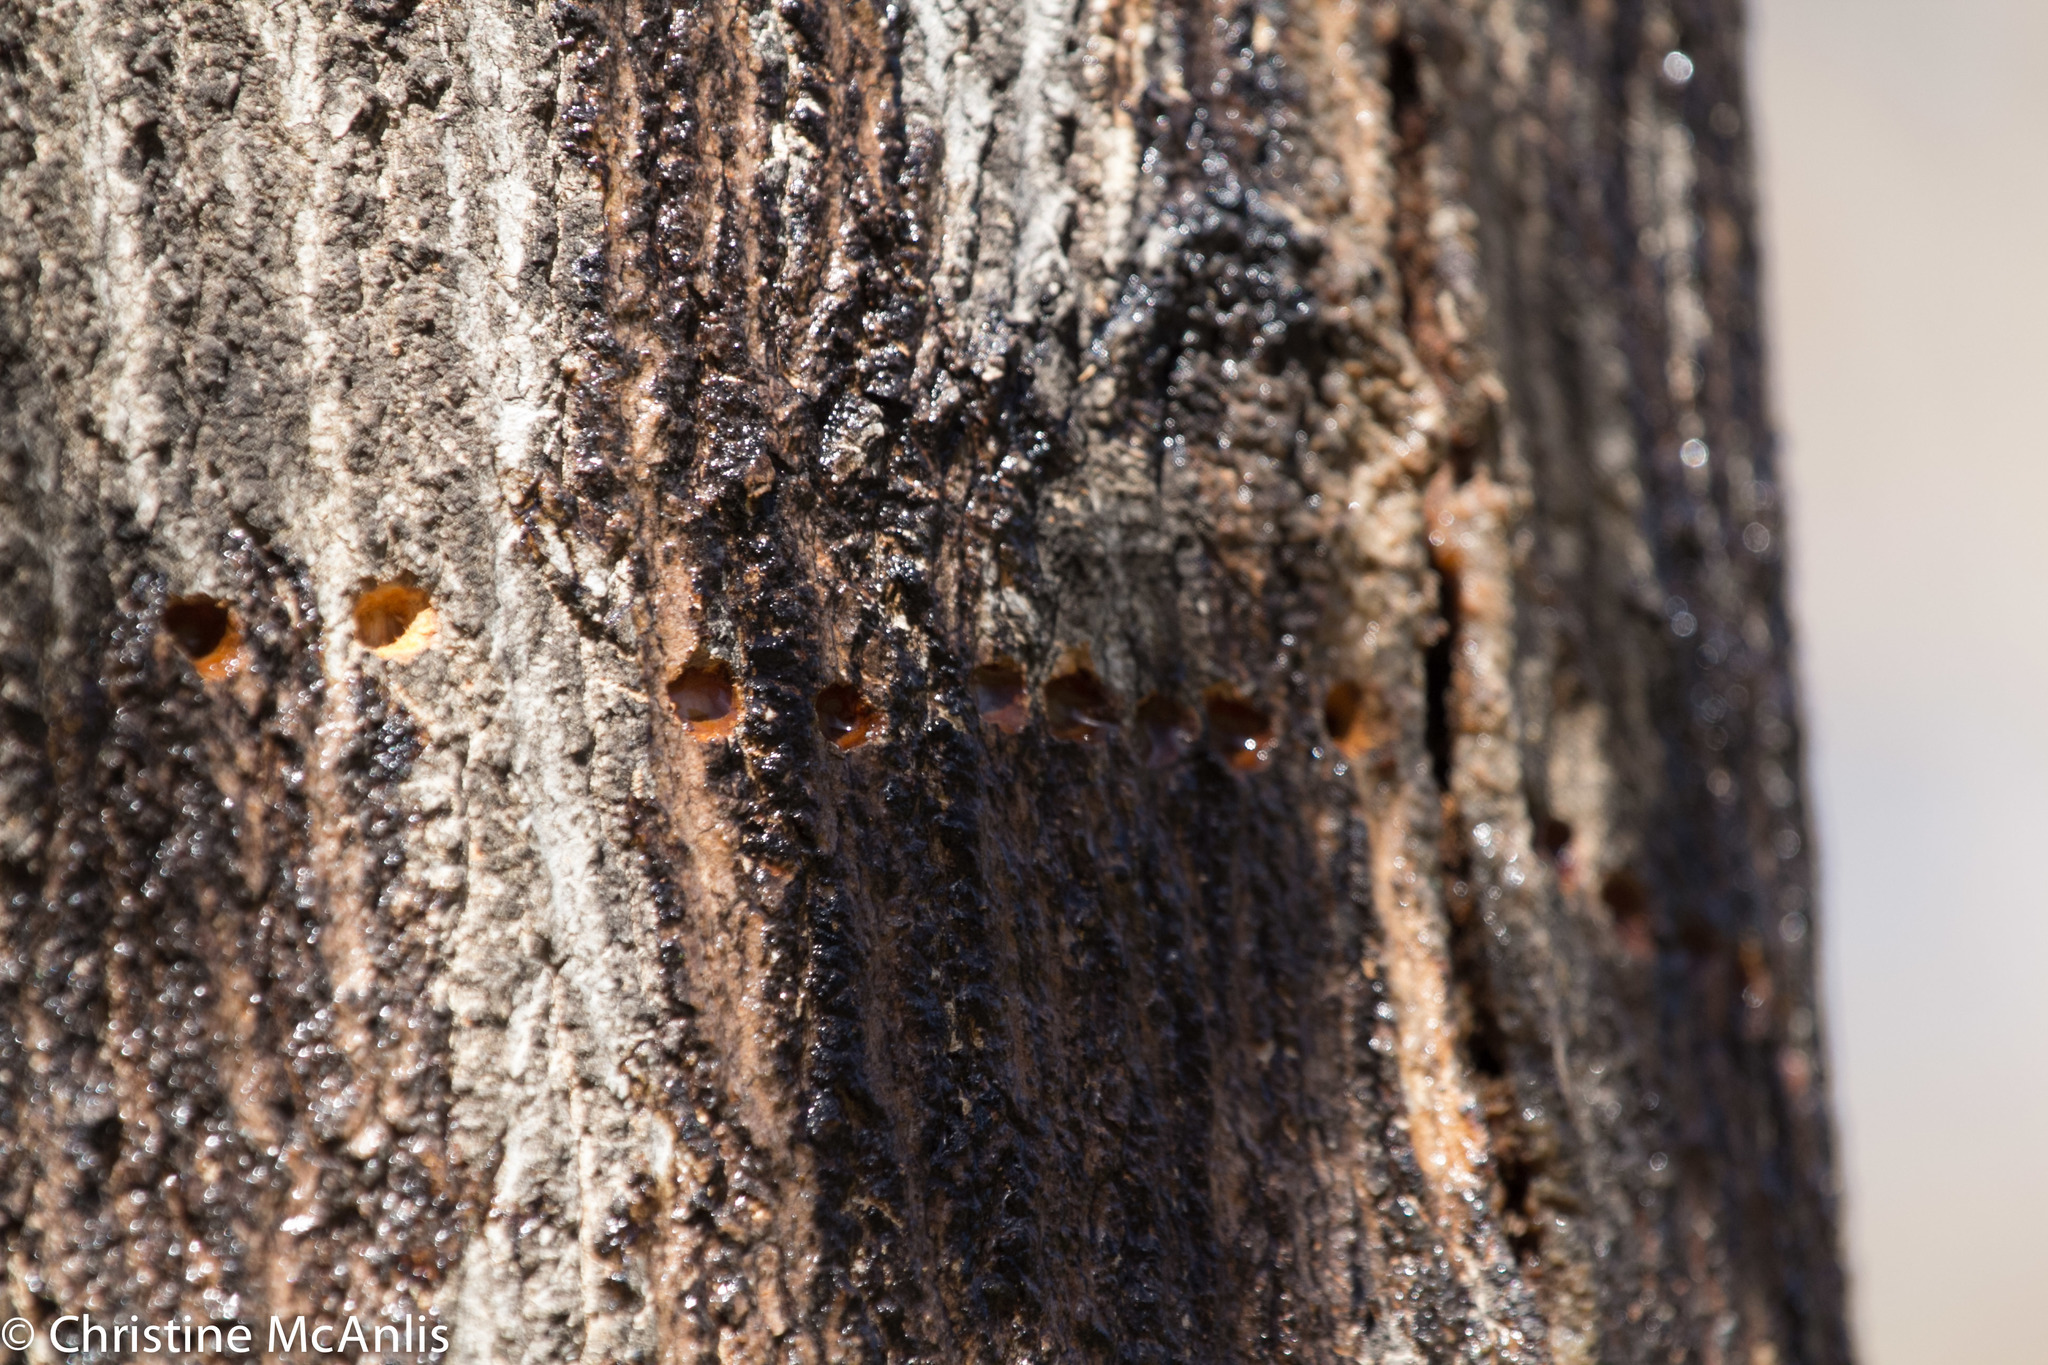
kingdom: Animalia
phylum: Chordata
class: Aves
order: Piciformes
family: Picidae
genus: Sphyrapicus
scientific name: Sphyrapicus varius
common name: Yellow-bellied sapsucker
